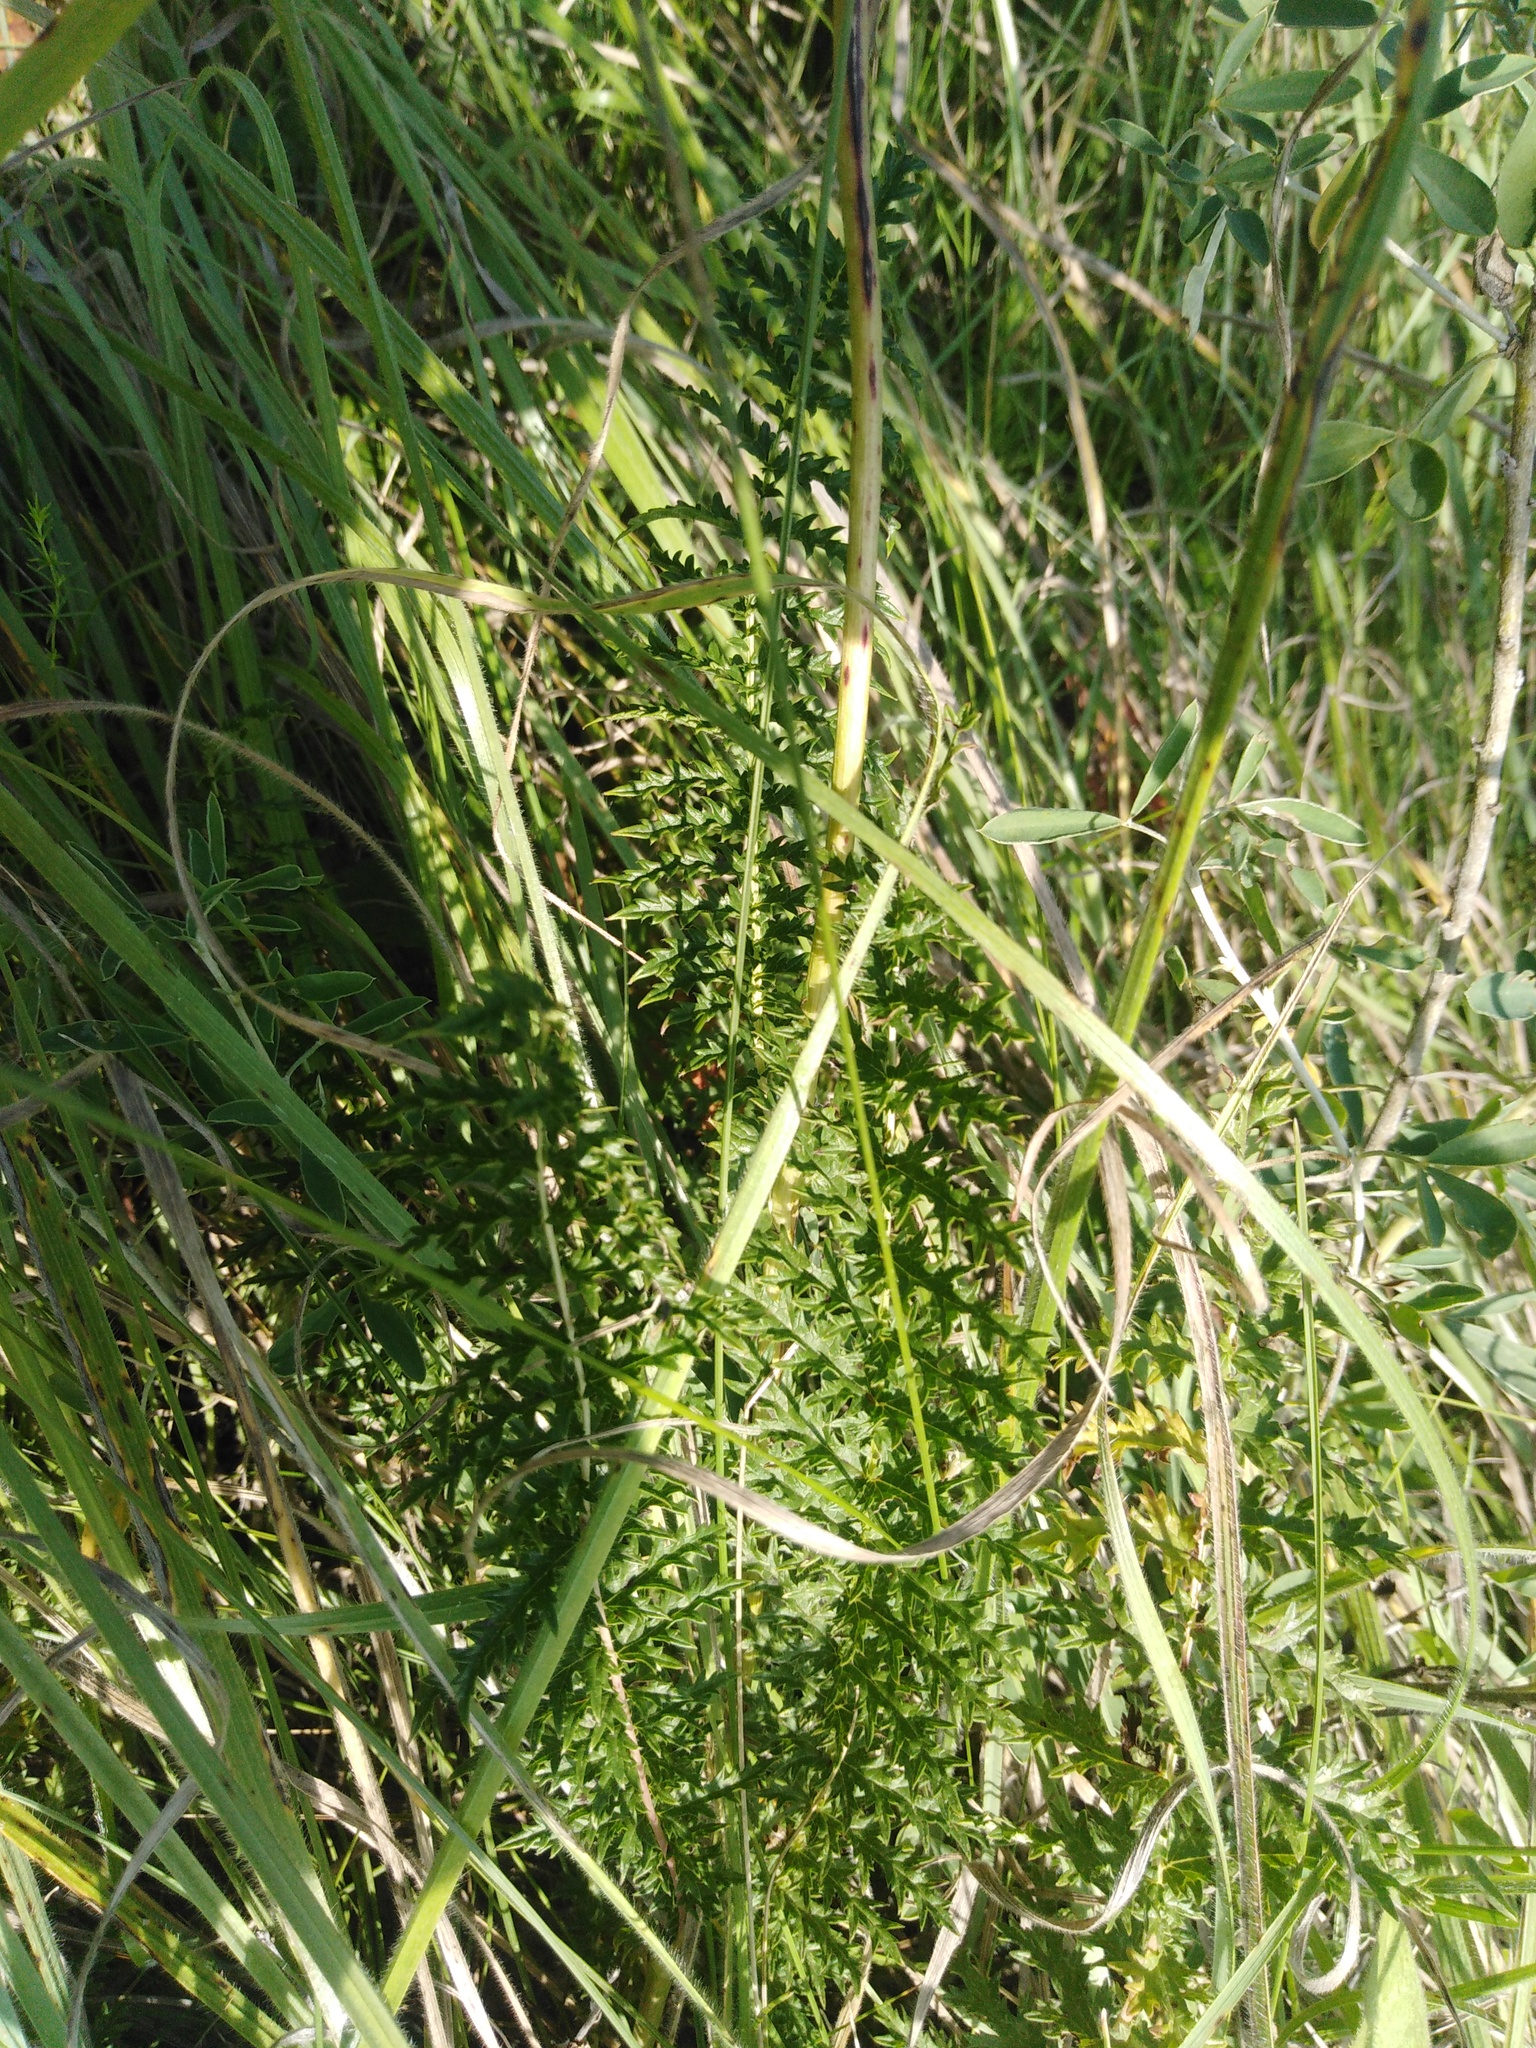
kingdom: Plantae
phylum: Tracheophyta
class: Magnoliopsida
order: Rosales
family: Rosaceae
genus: Filipendula
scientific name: Filipendula vulgaris
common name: Dropwort
